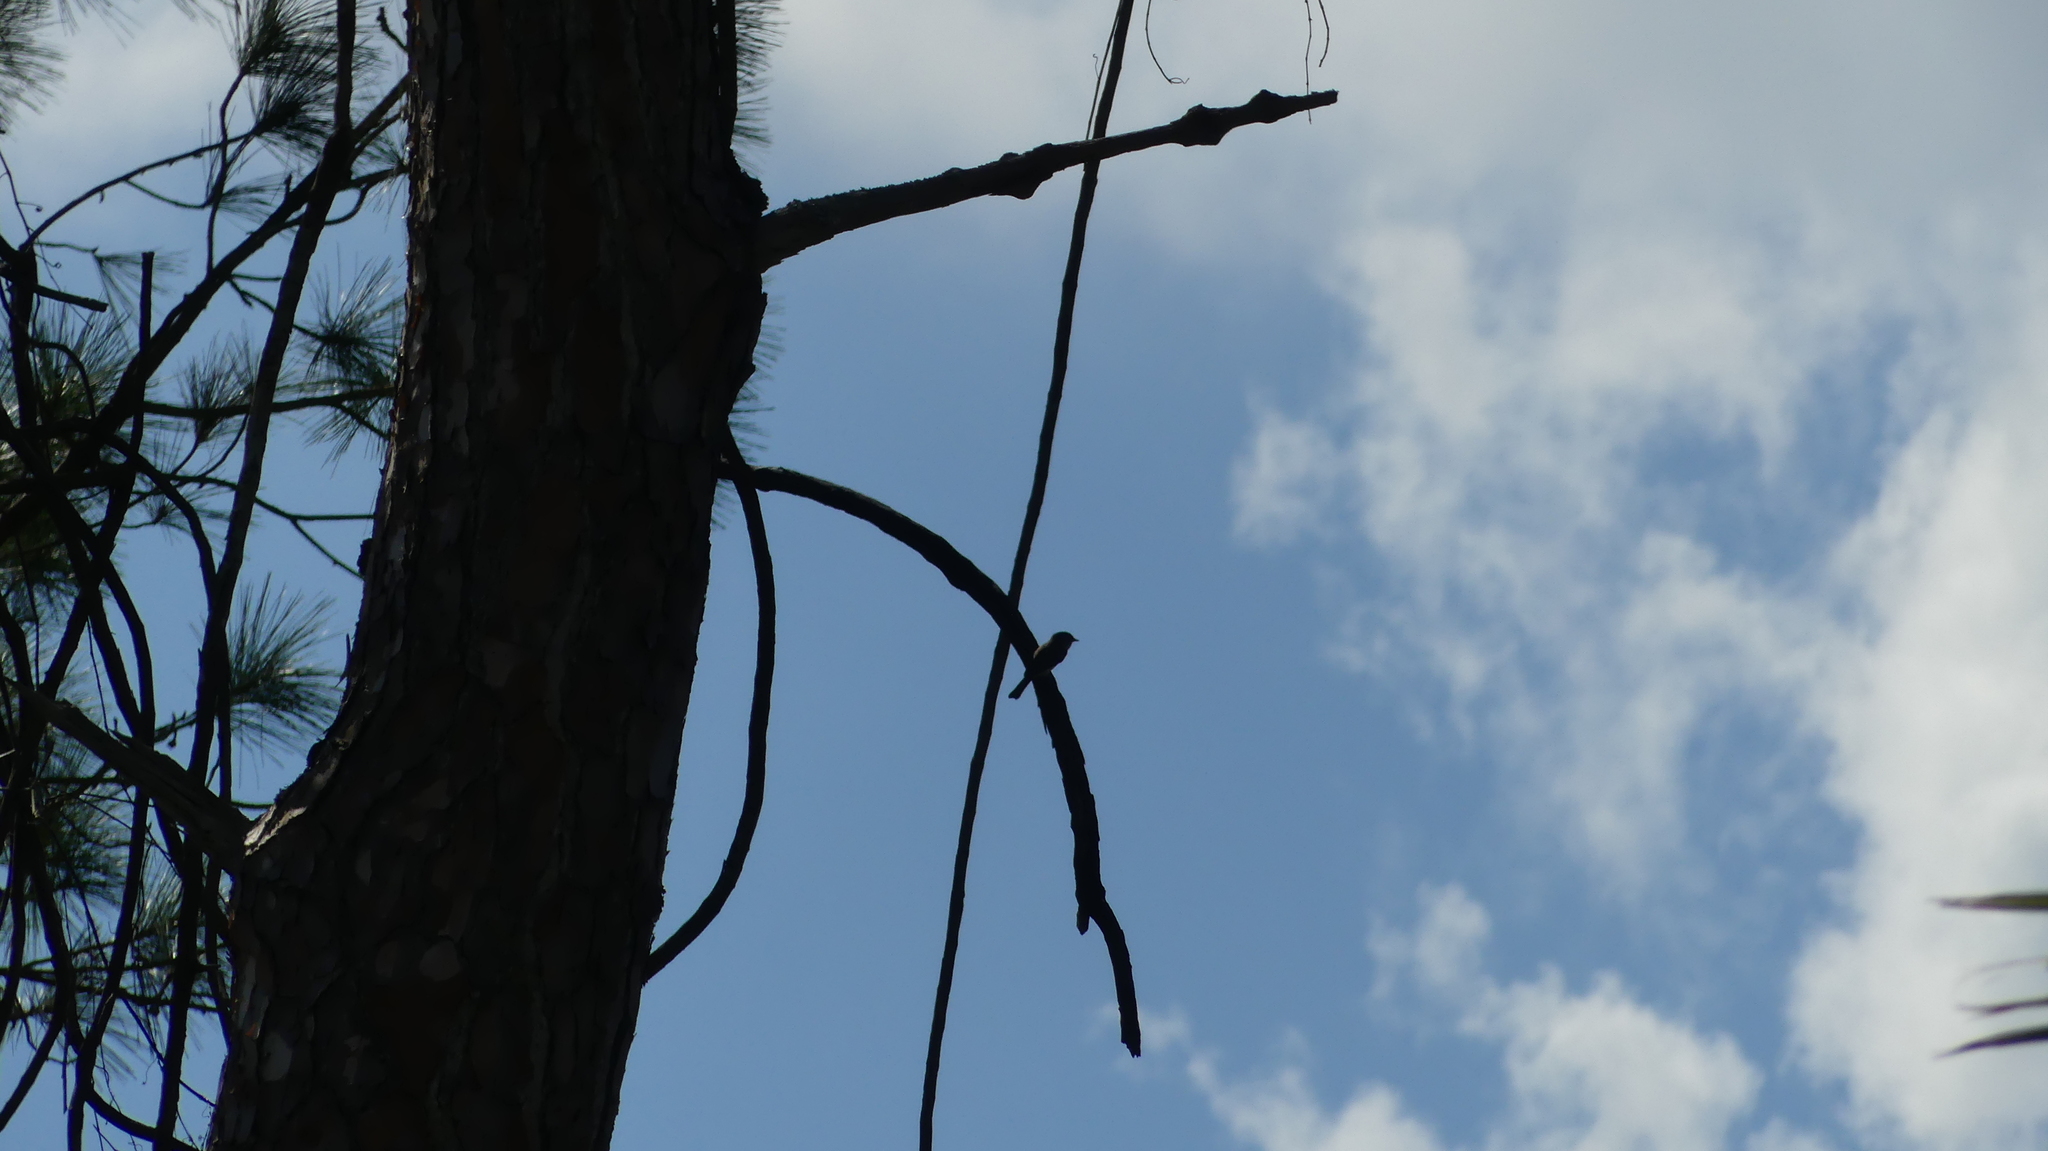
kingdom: Animalia
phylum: Chordata
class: Aves
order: Passeriformes
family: Tyrannidae
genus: Sayornis
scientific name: Sayornis phoebe
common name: Eastern phoebe
